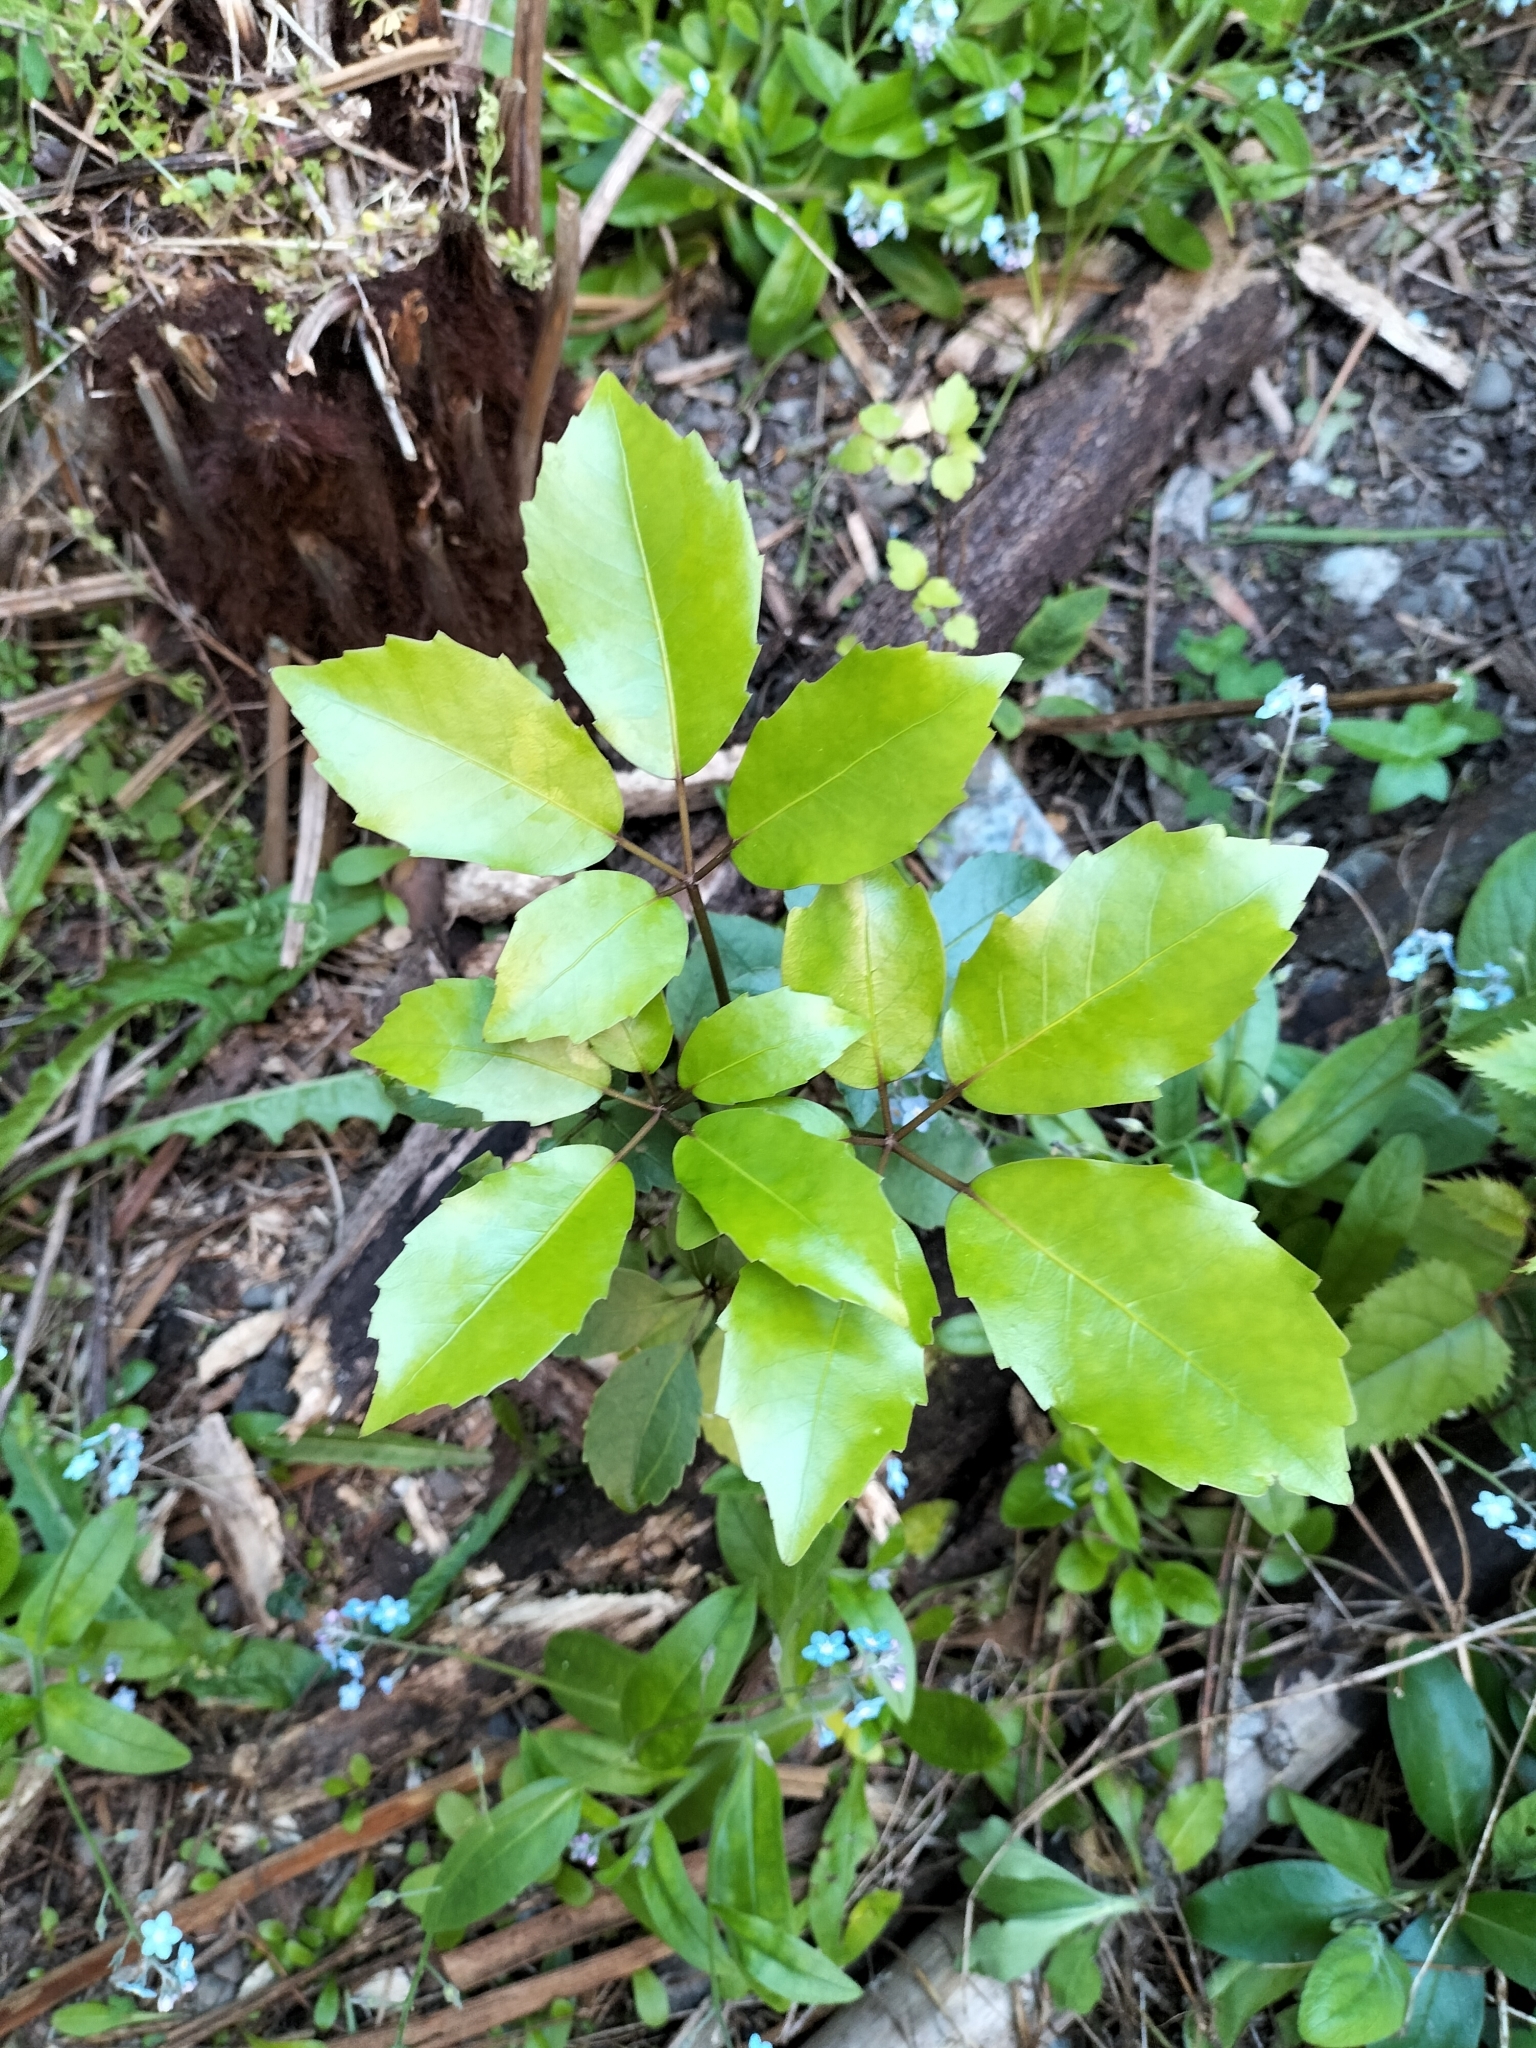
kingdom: Plantae
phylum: Tracheophyta
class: Magnoliopsida
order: Apiales
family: Araliaceae
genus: Neopanax
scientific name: Neopanax arboreus
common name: Five-fingers
